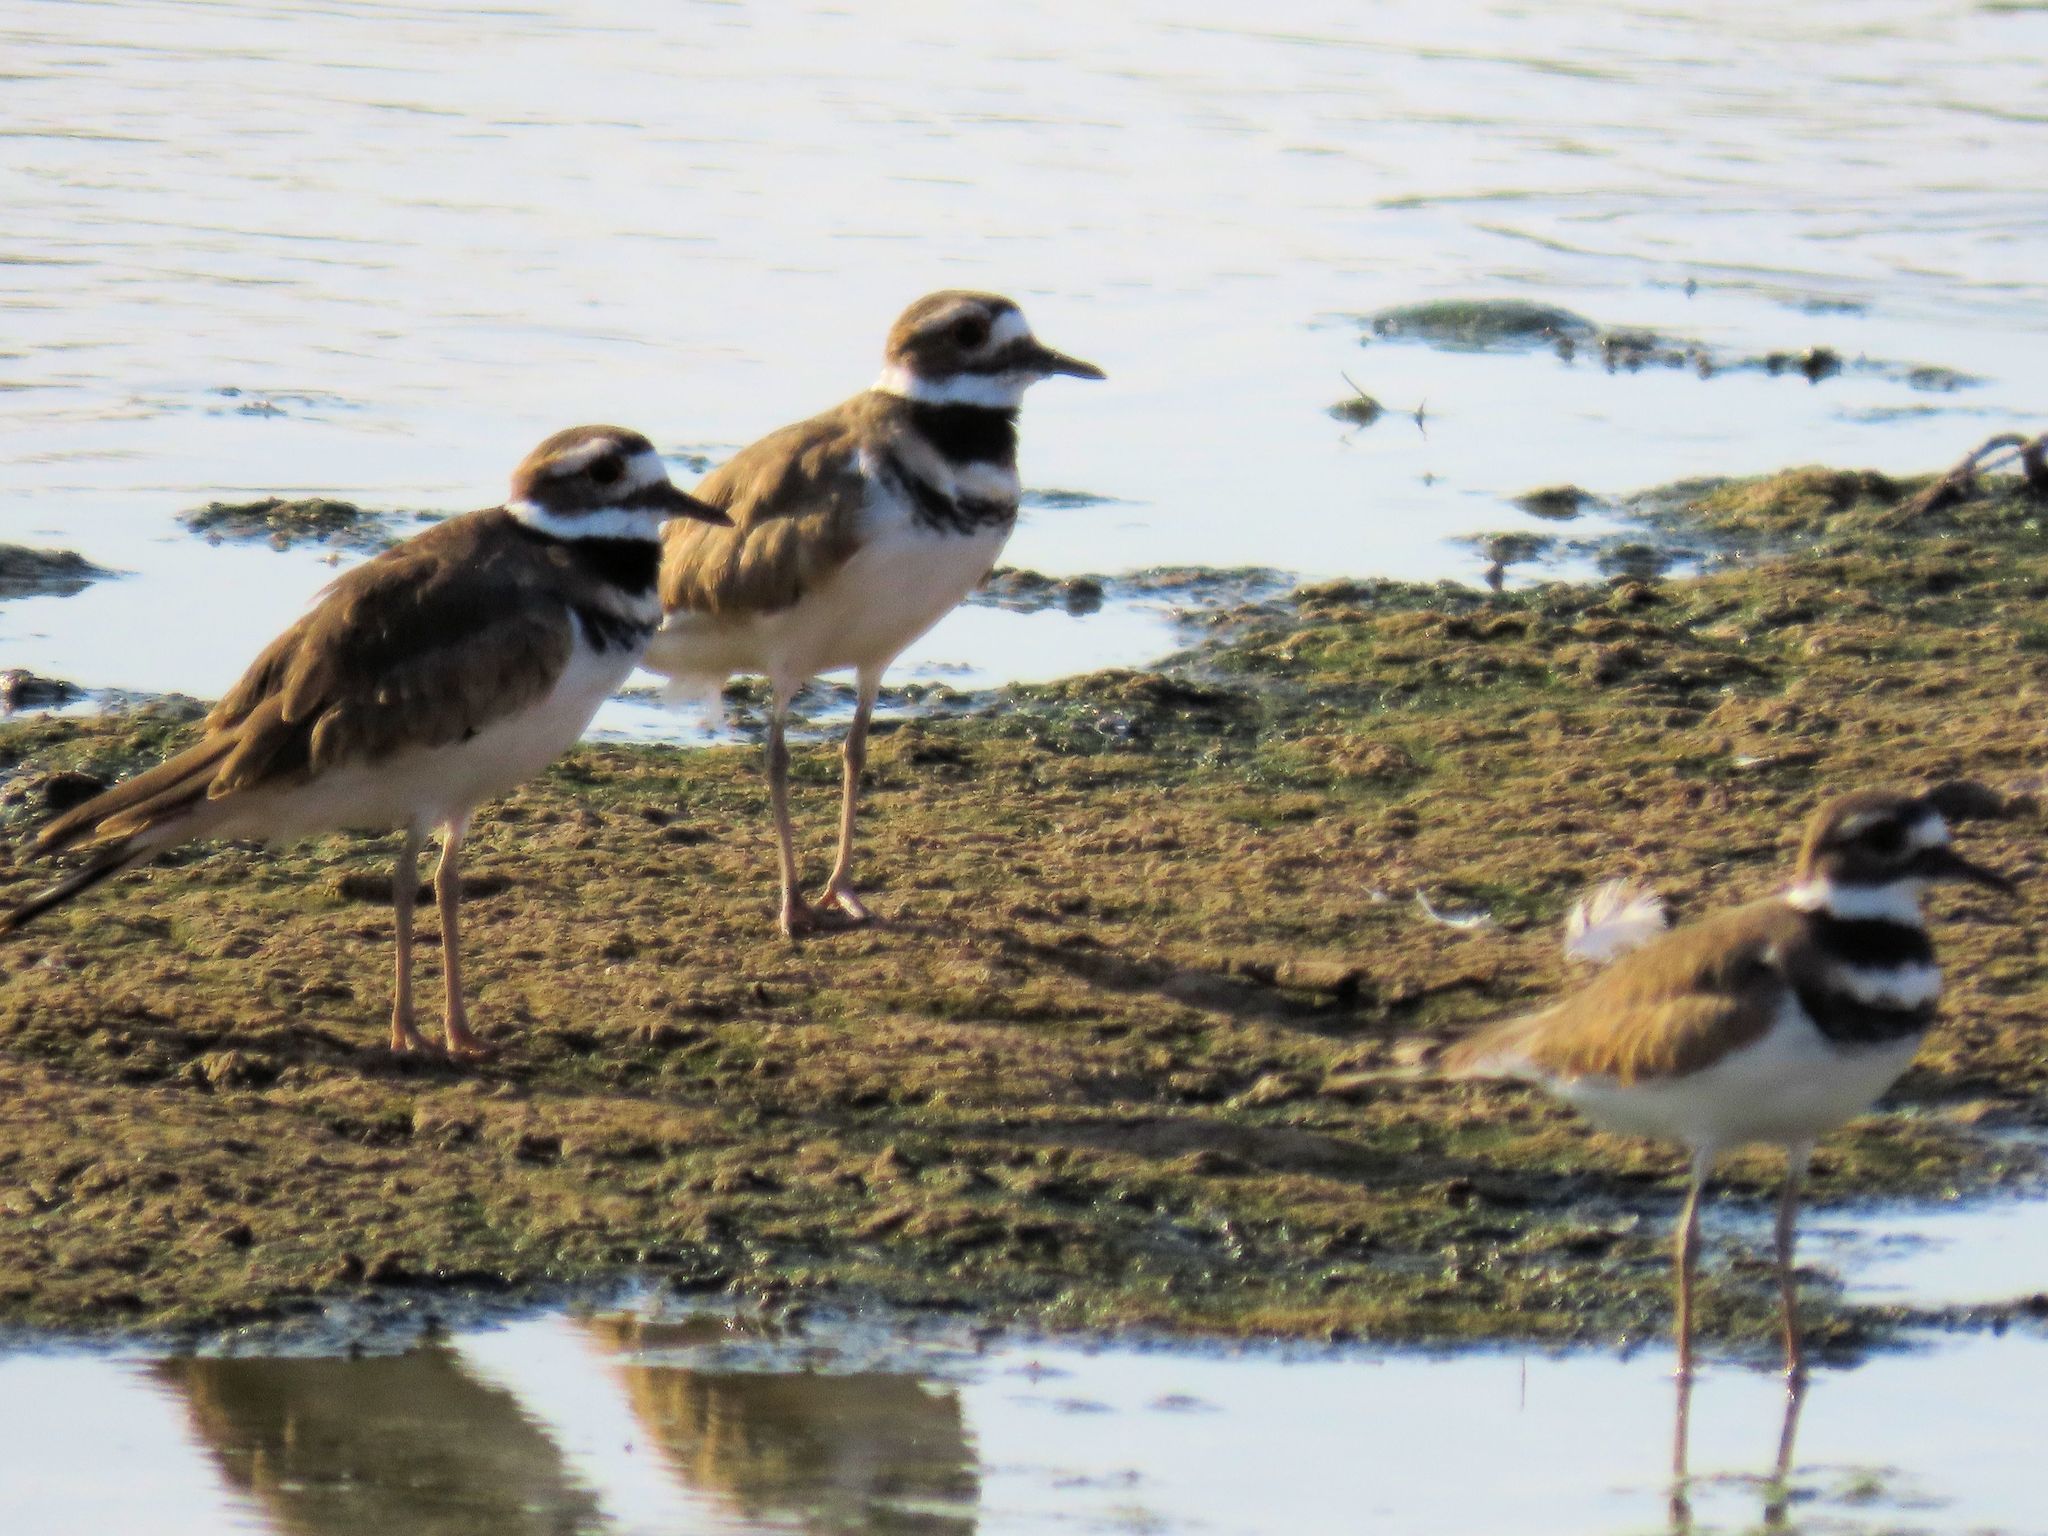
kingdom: Animalia
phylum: Chordata
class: Aves
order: Charadriiformes
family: Charadriidae
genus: Charadrius
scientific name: Charadrius vociferus
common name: Killdeer
